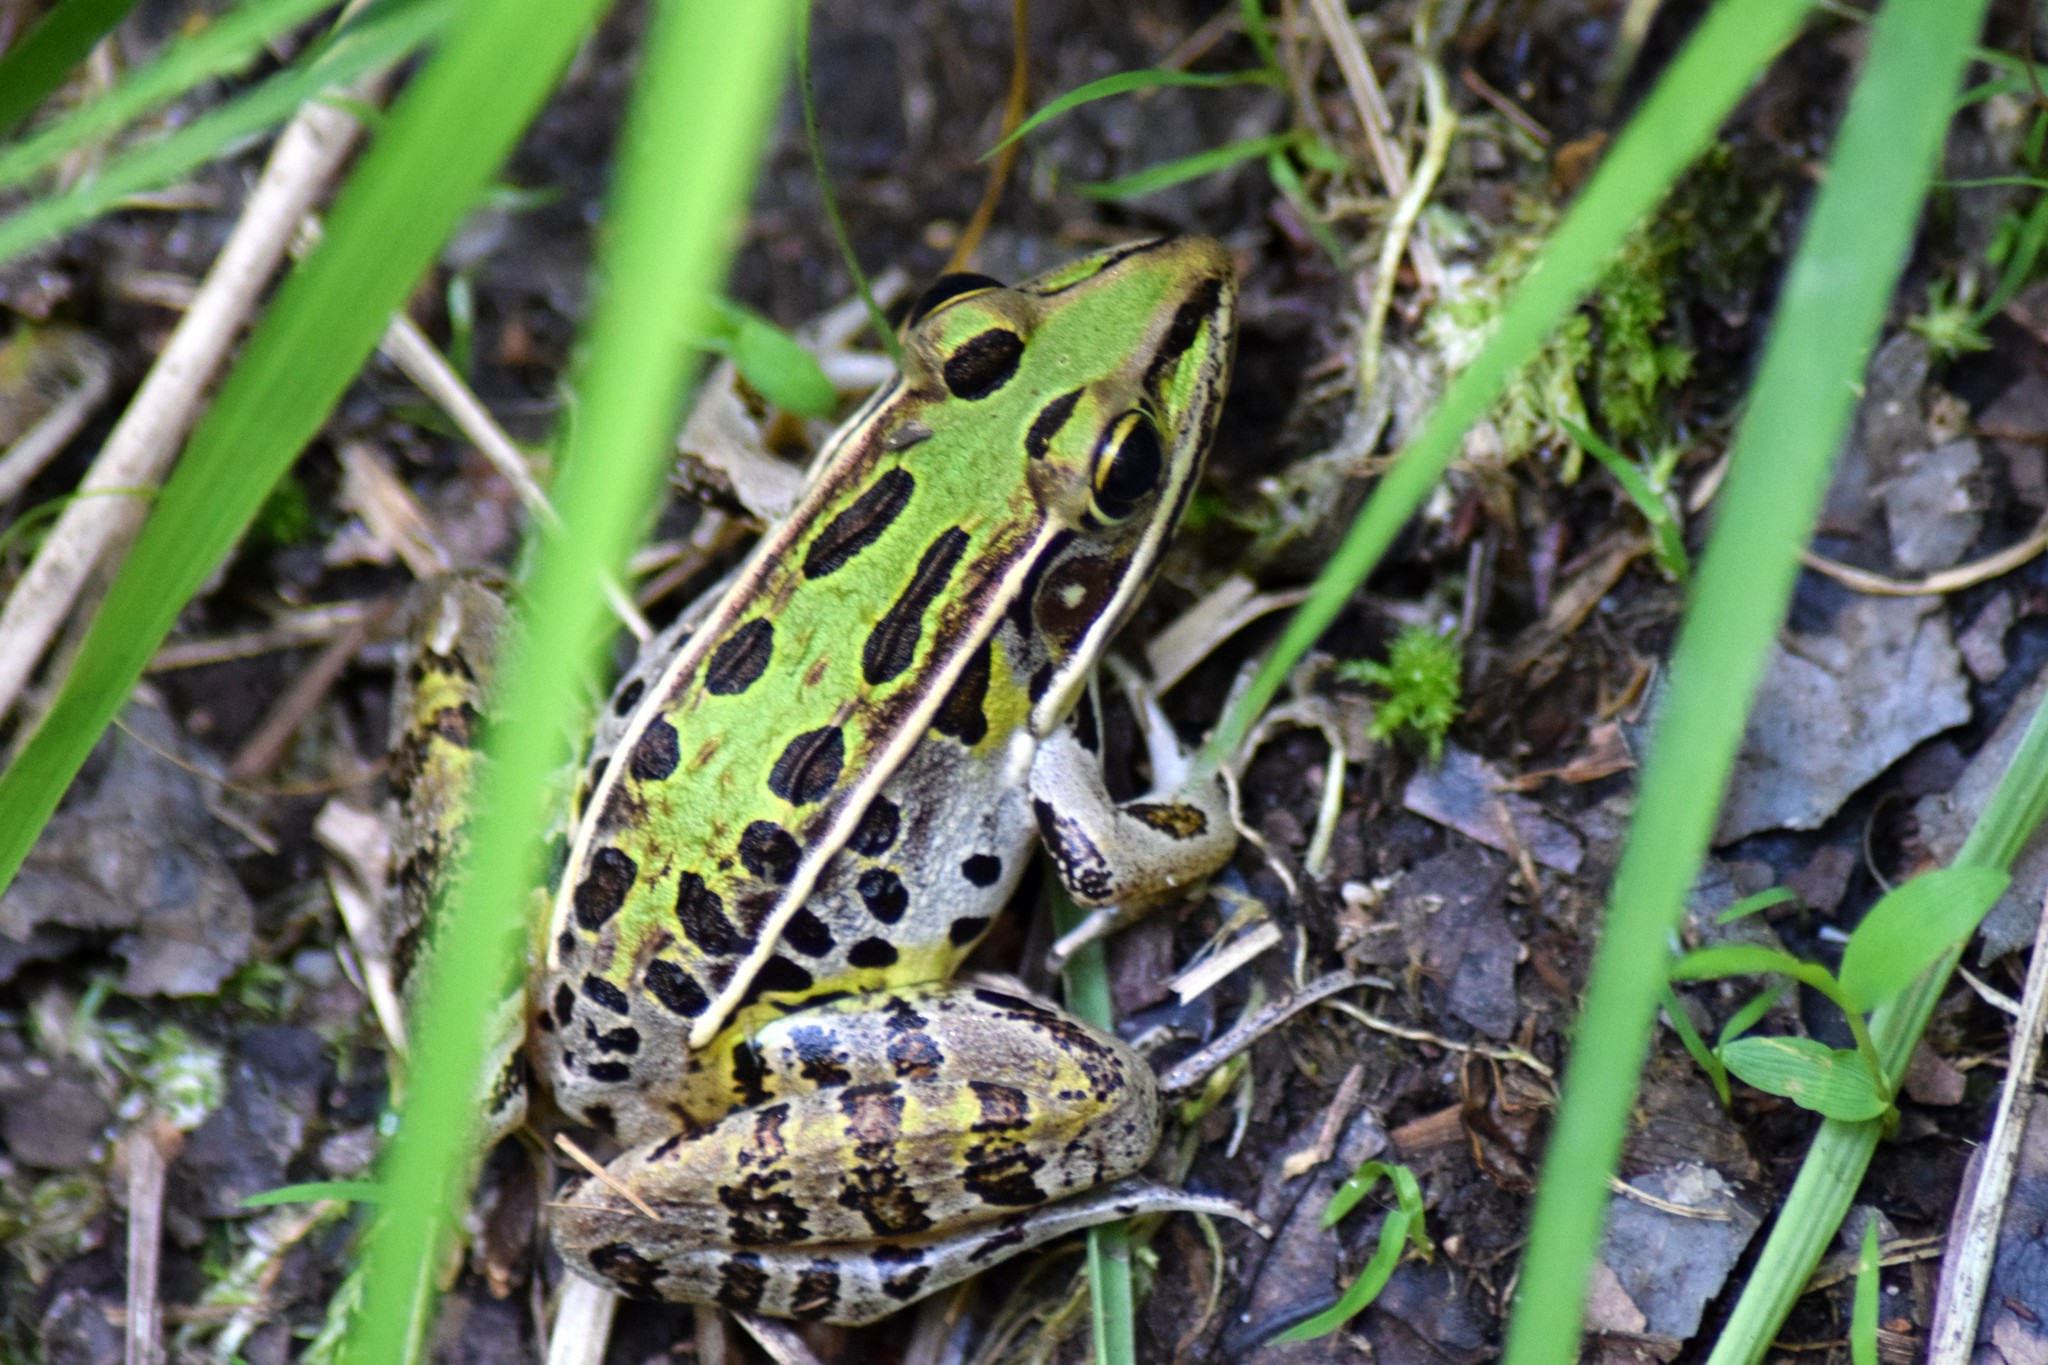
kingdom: Animalia
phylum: Chordata
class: Amphibia
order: Anura
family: Ranidae
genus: Lithobates
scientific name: Lithobates sphenocephalus
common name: Southern leopard frog
